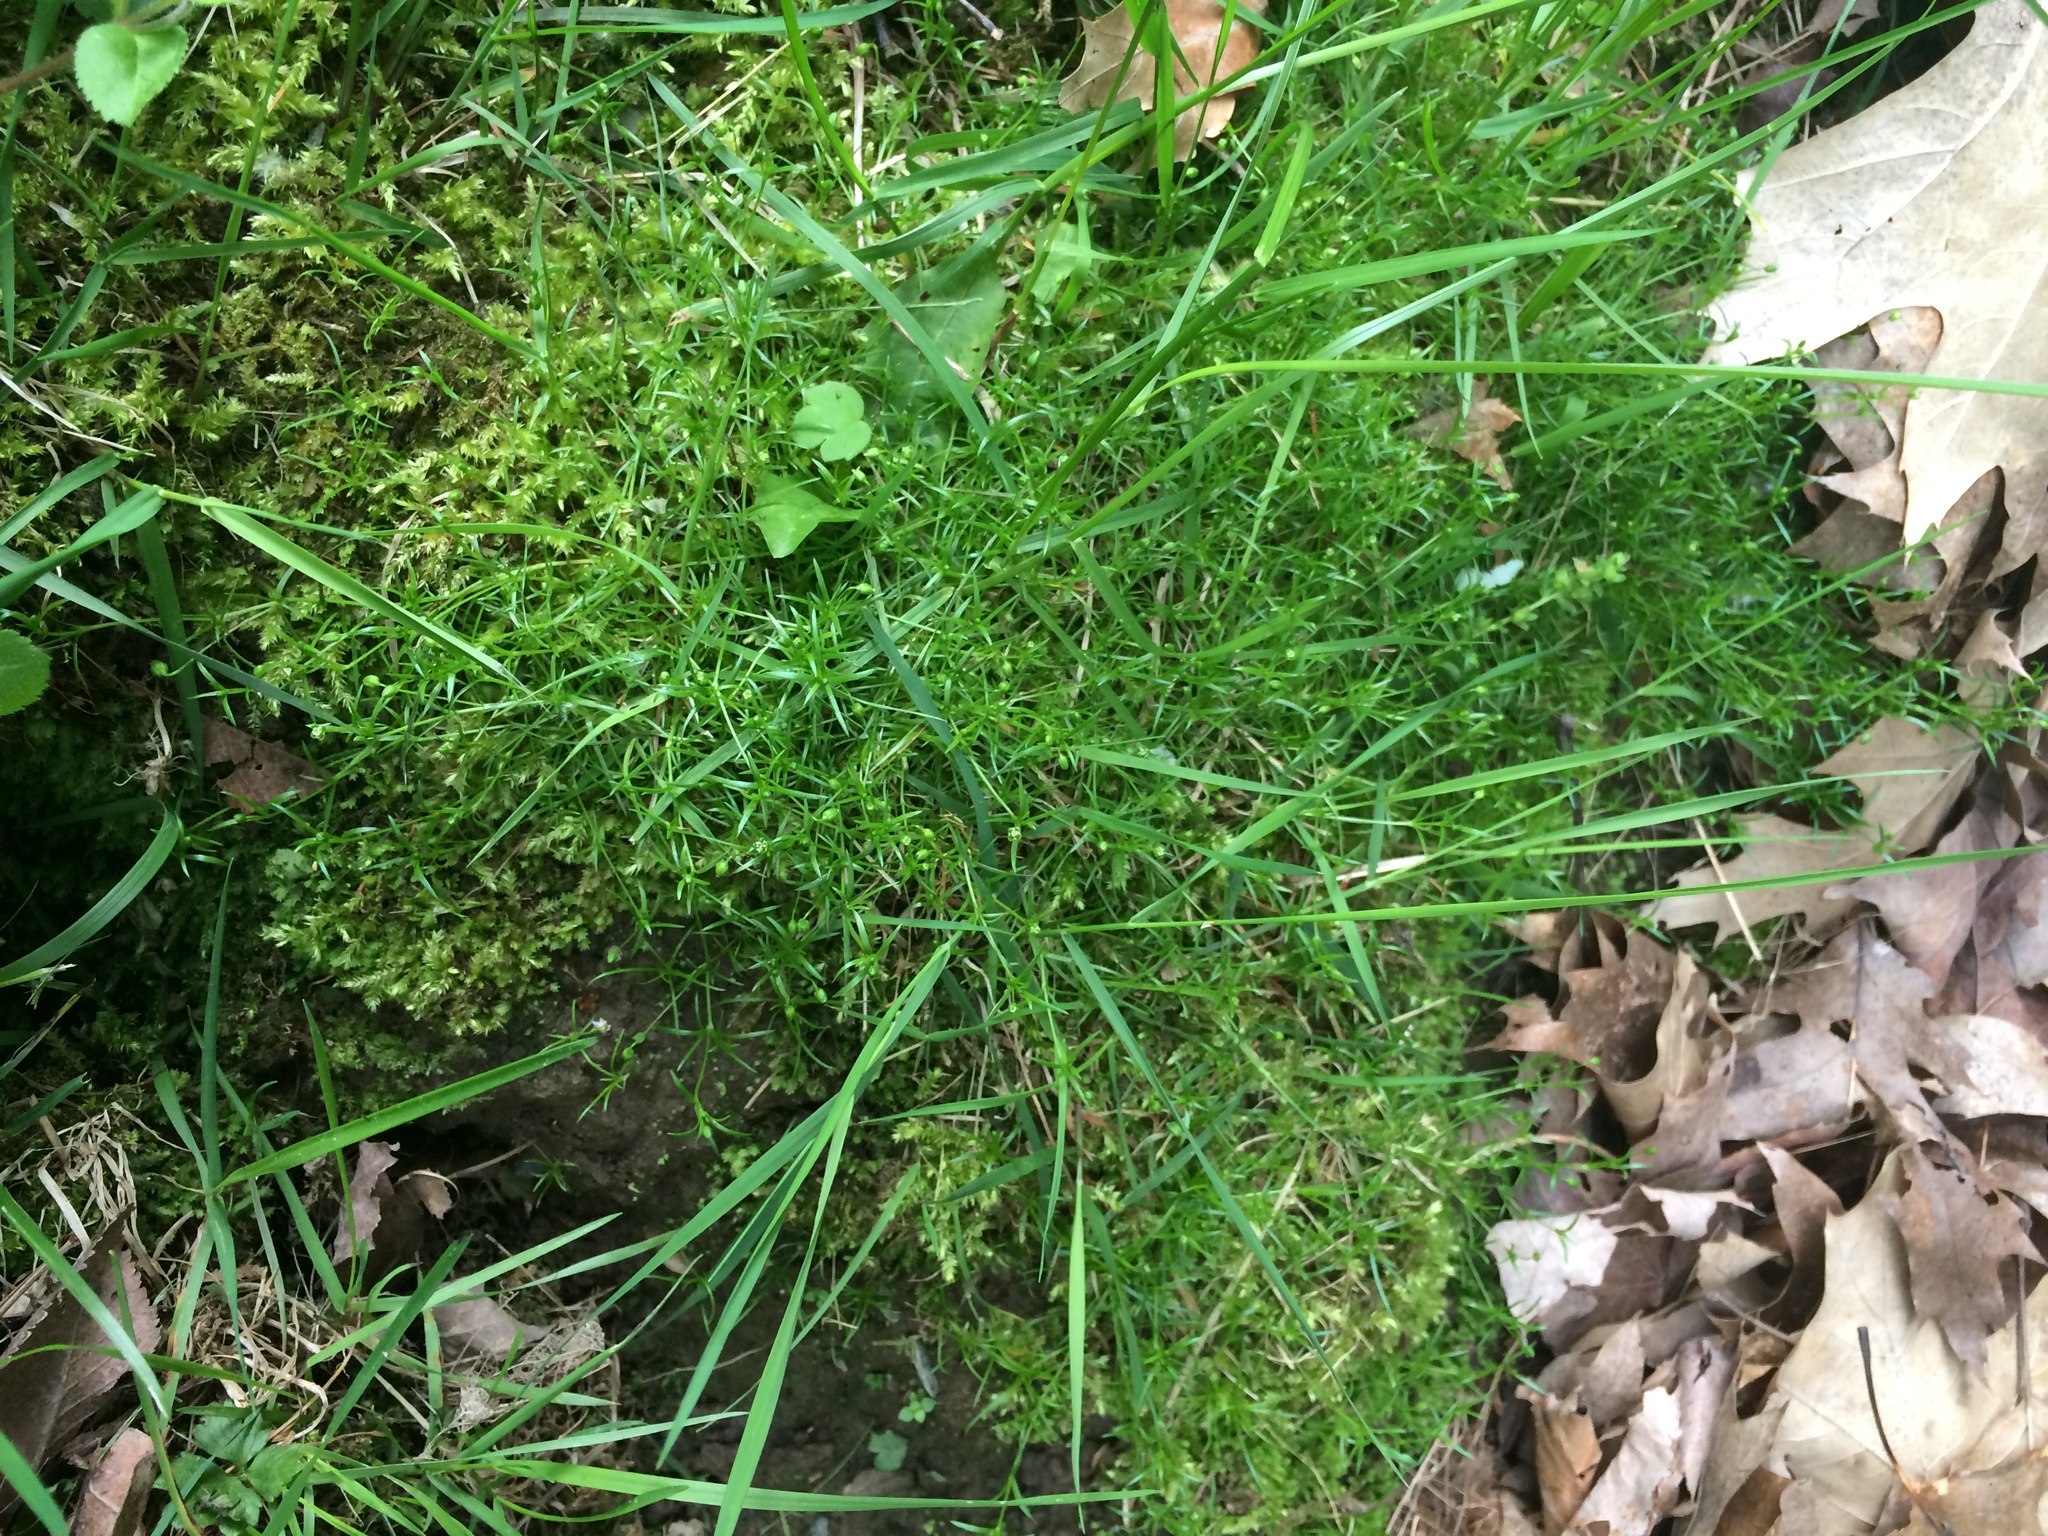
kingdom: Plantae
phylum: Tracheophyta
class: Magnoliopsida
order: Caryophyllales
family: Caryophyllaceae
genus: Sagina
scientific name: Sagina procumbens
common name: Procumbent pearlwort
